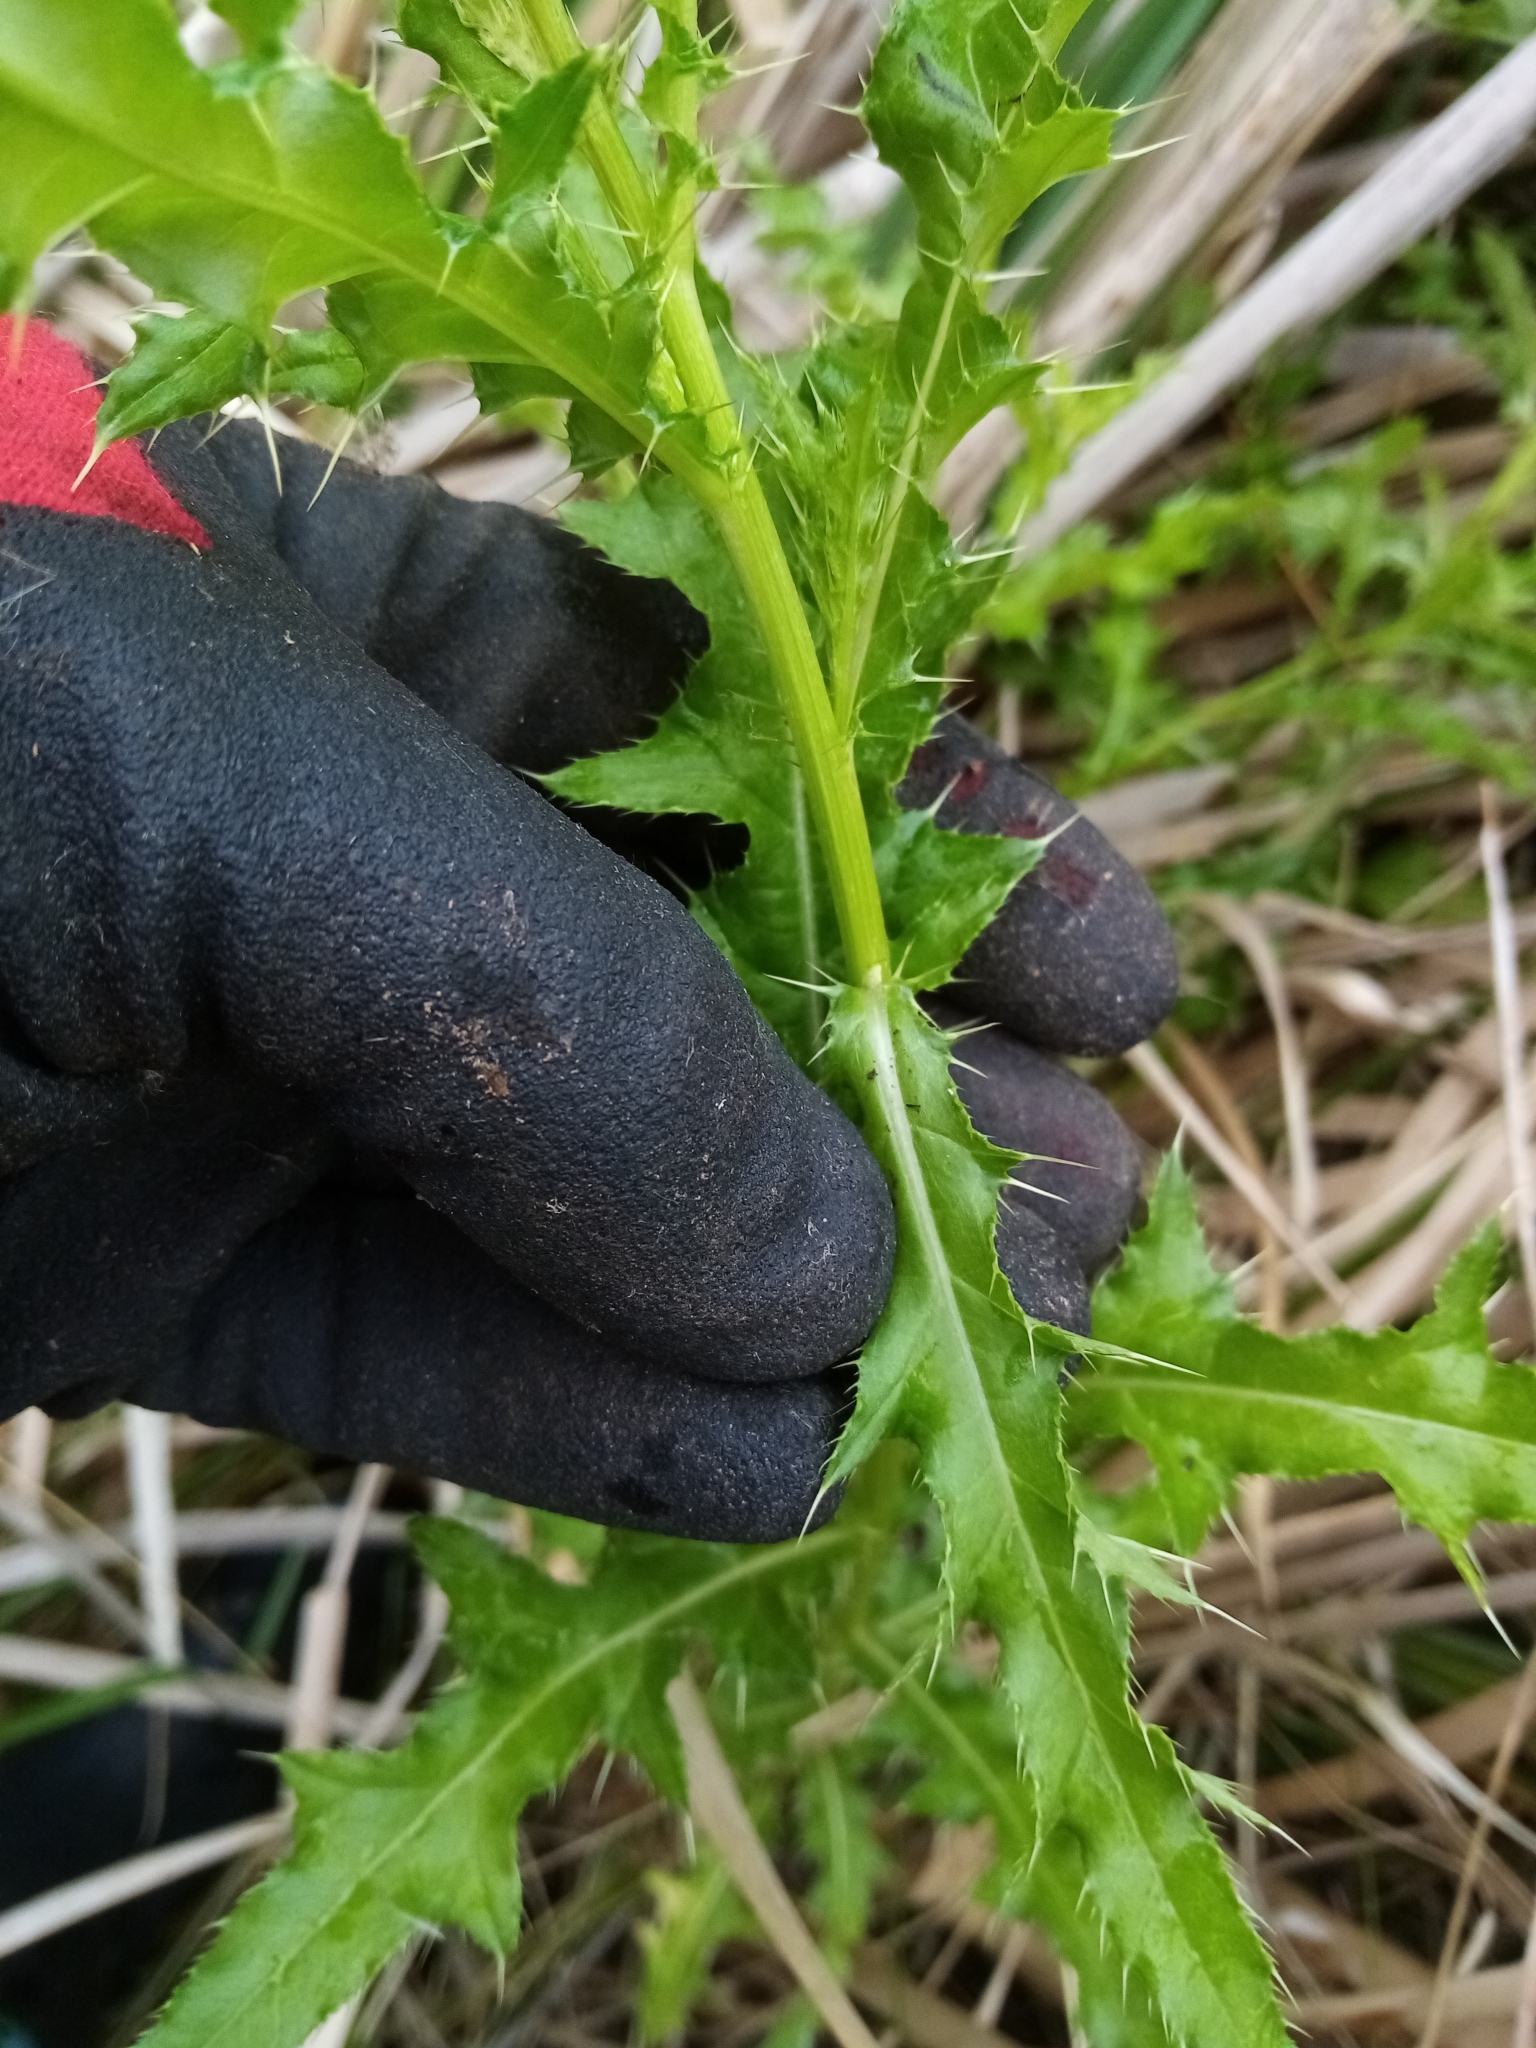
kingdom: Plantae
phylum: Tracheophyta
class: Magnoliopsida
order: Asterales
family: Asteraceae
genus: Cirsium
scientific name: Cirsium arvense
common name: Creeping thistle
